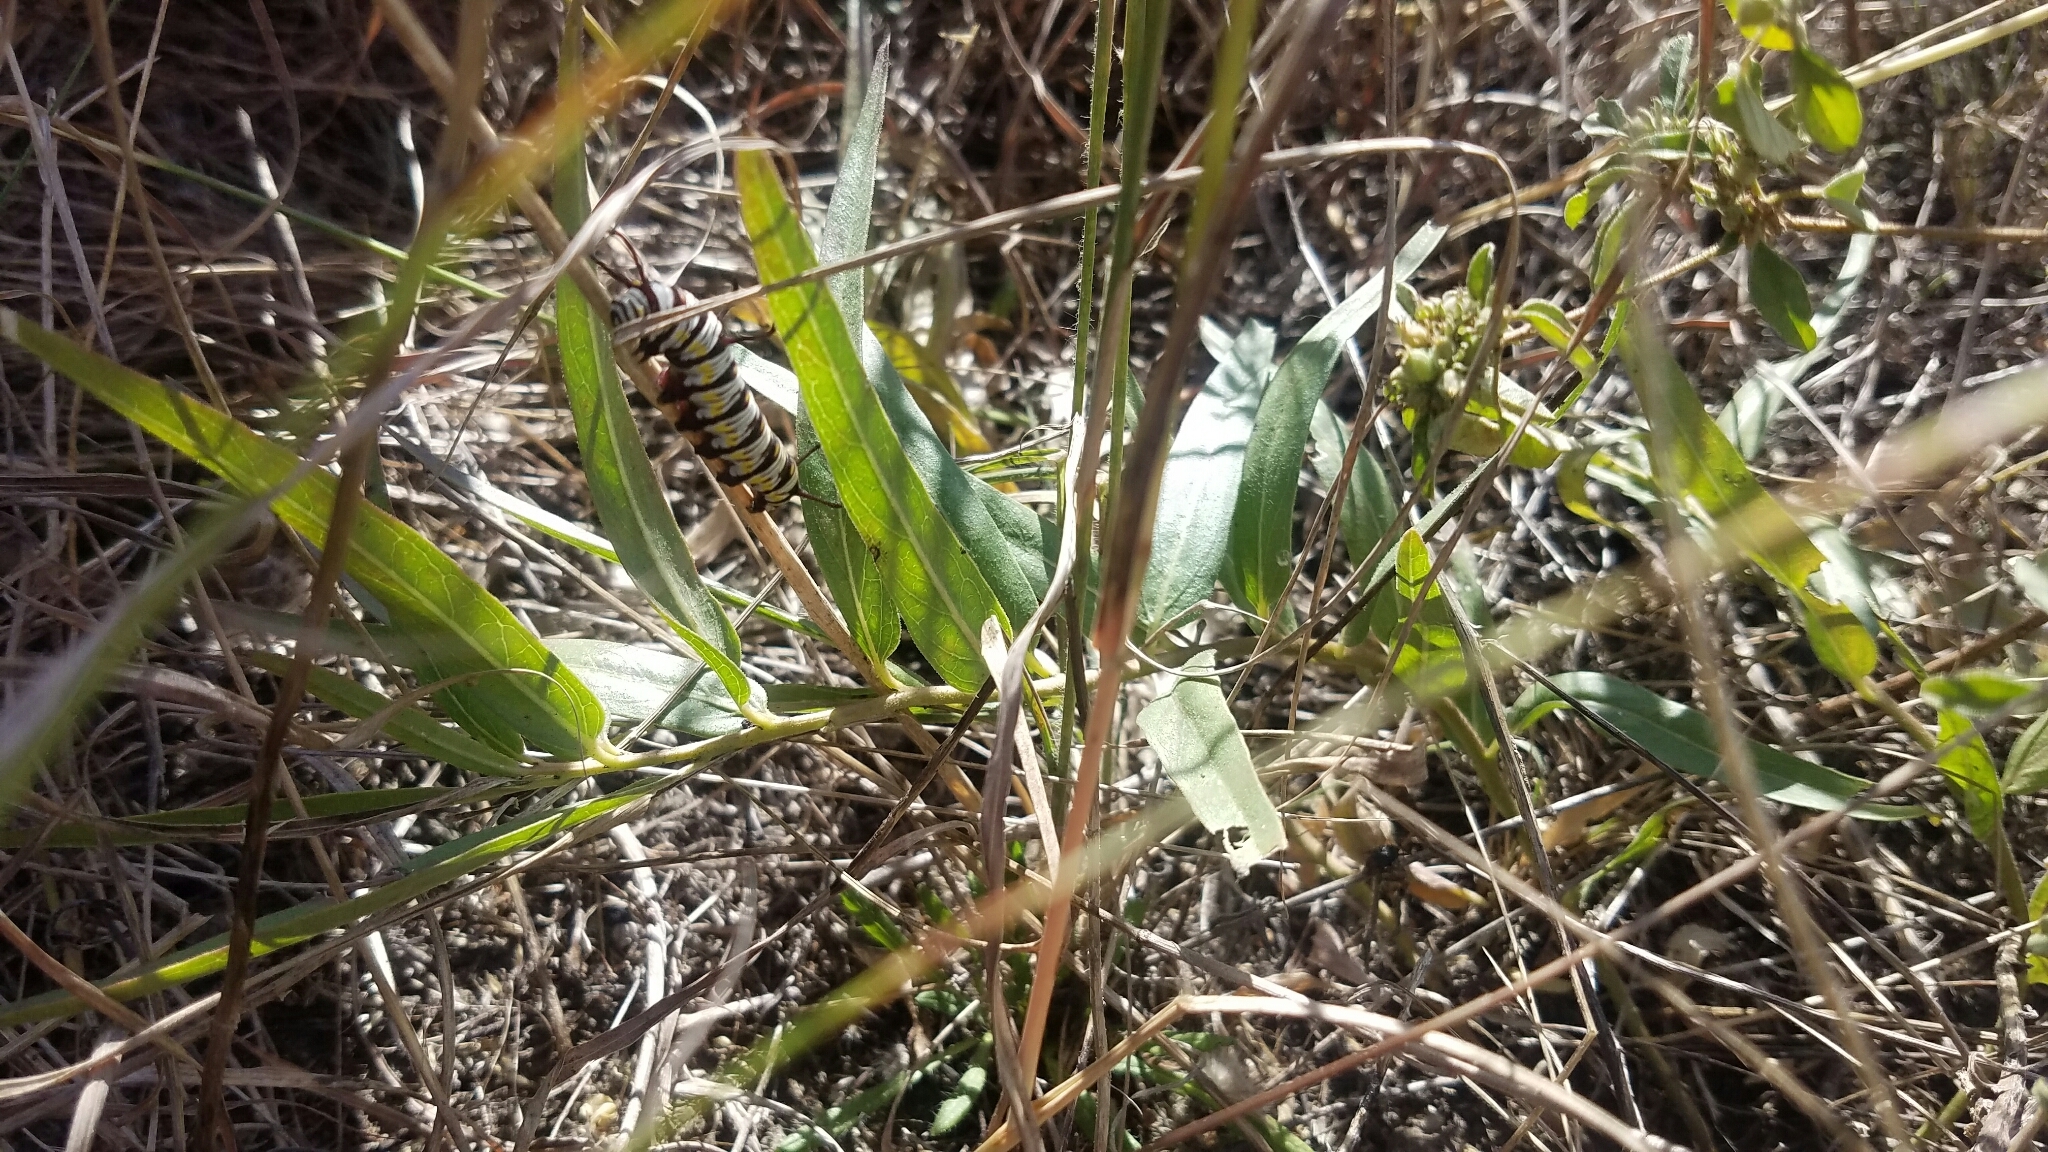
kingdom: Plantae
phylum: Tracheophyta
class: Magnoliopsida
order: Gentianales
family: Apocynaceae
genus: Asclepias
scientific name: Asclepias asperula
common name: Antelope horns
